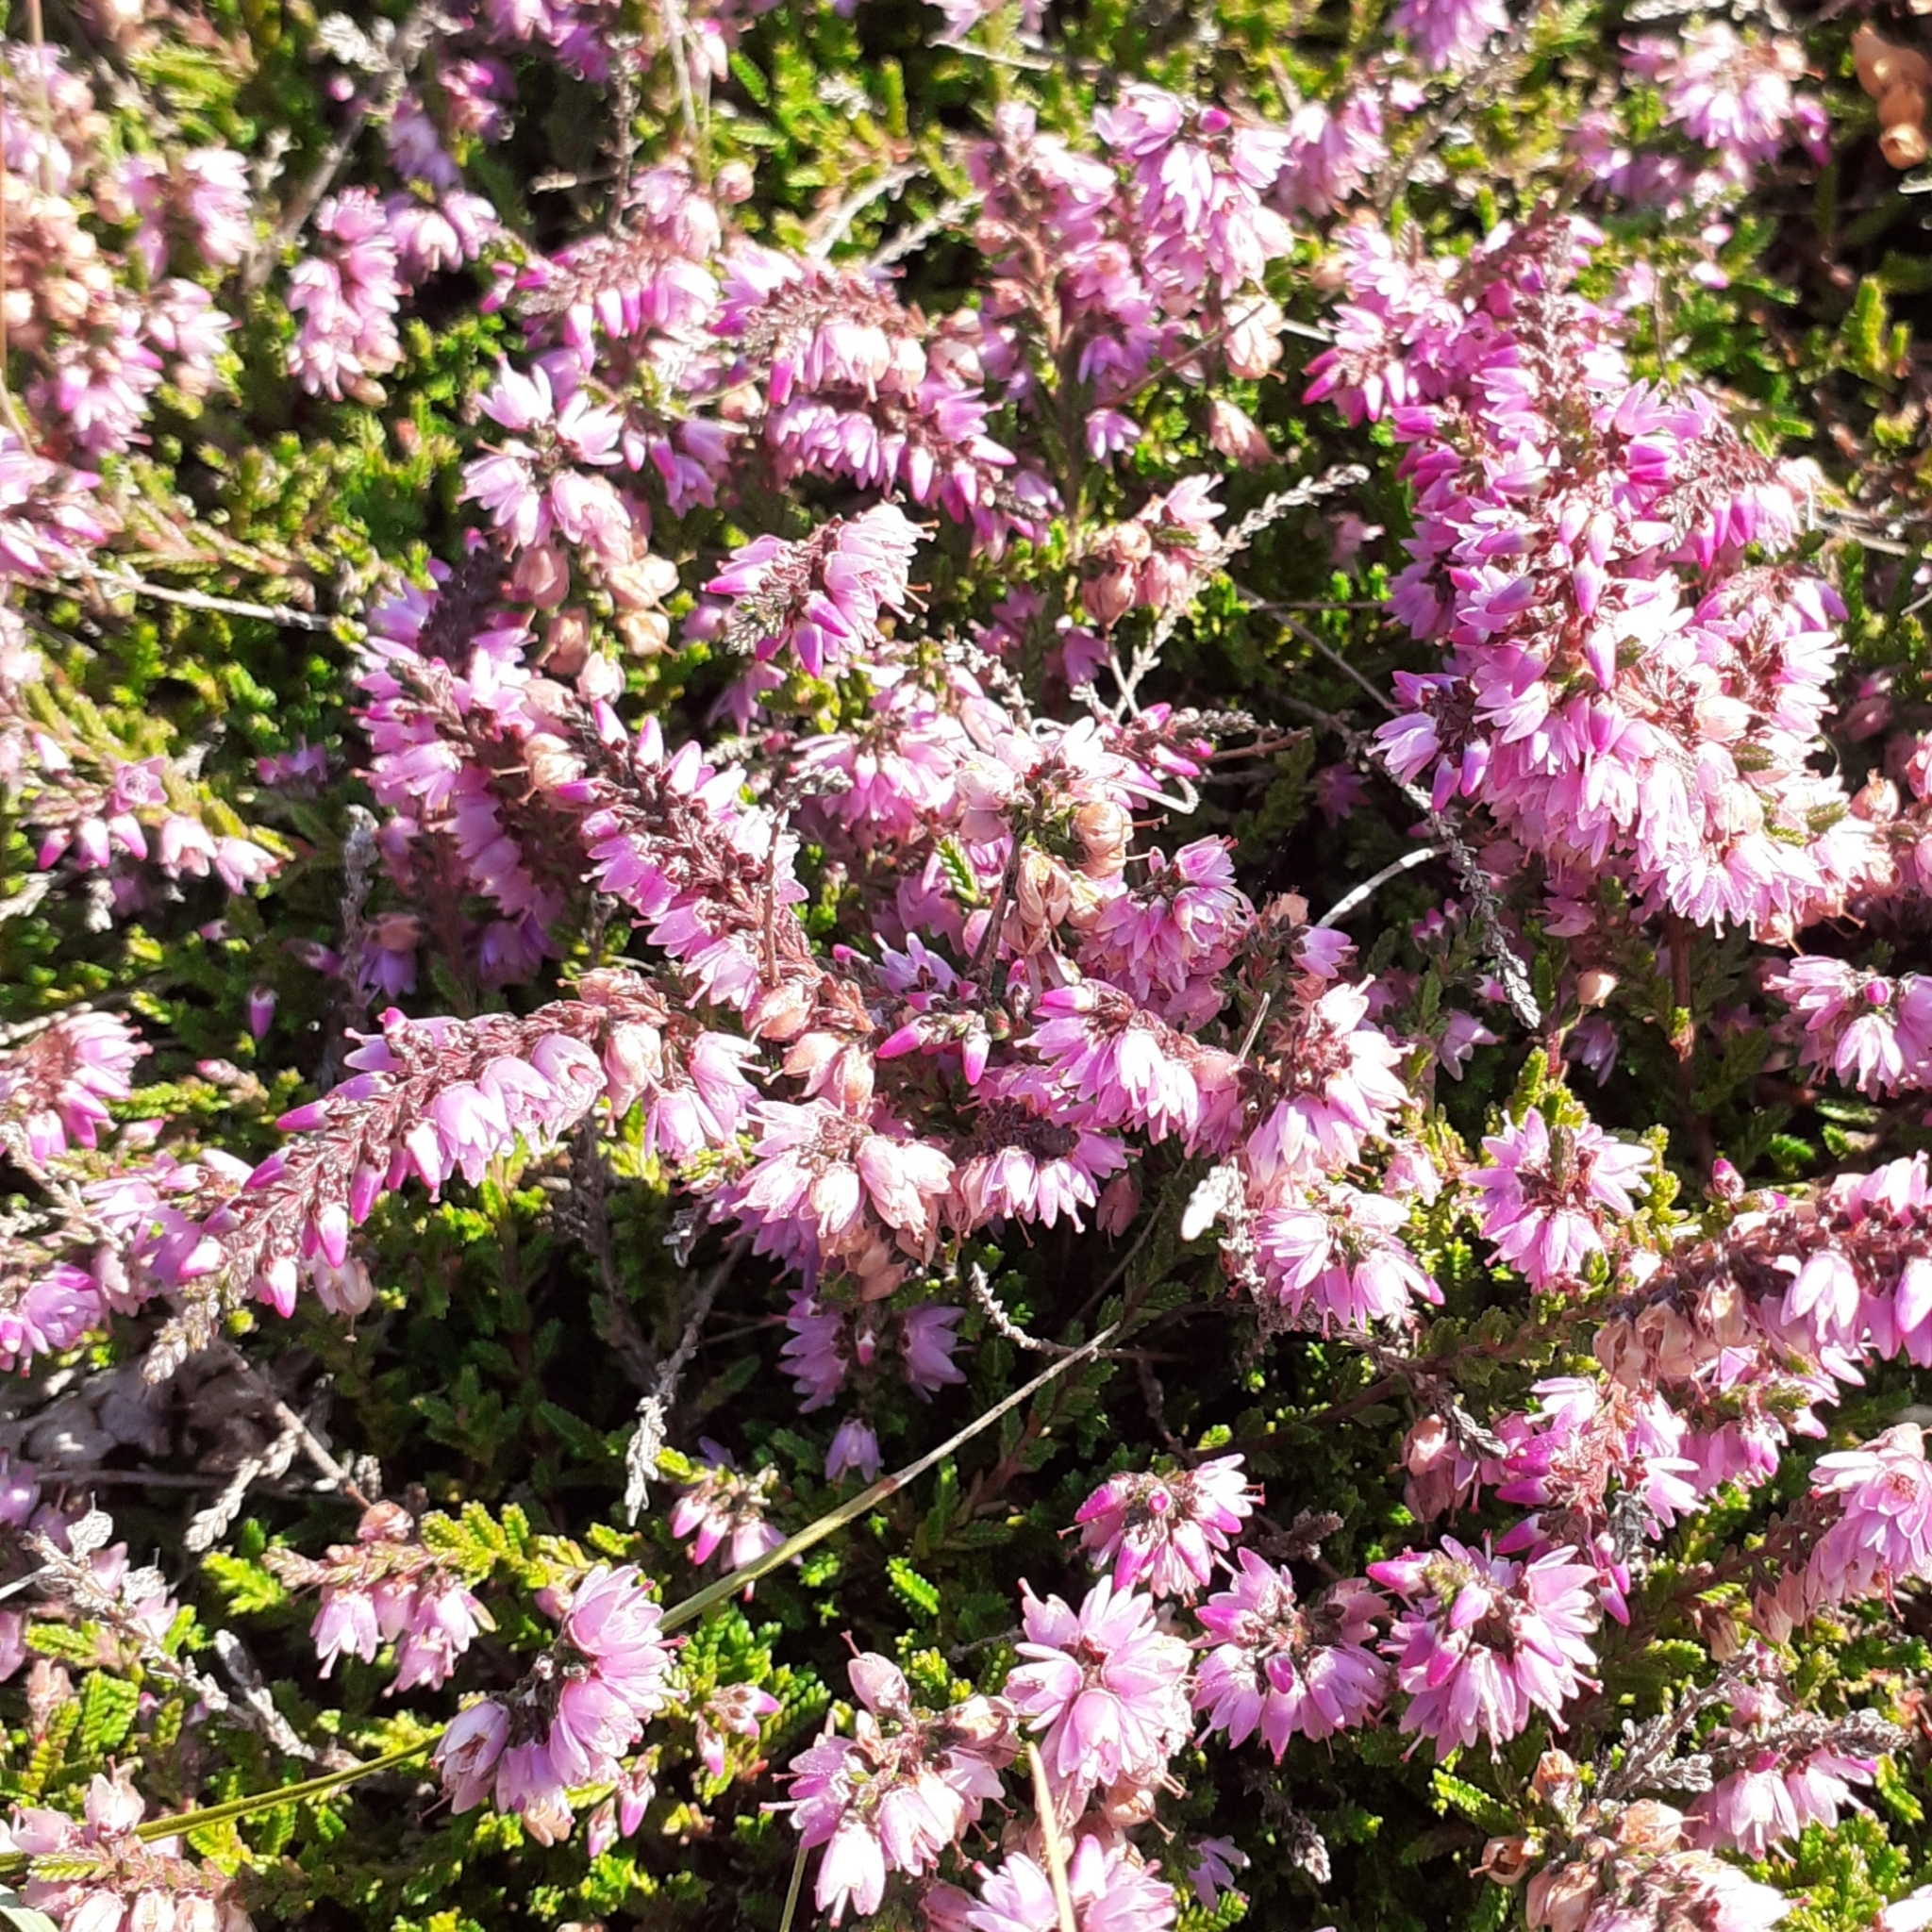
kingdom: Plantae
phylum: Tracheophyta
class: Magnoliopsida
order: Ericales
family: Ericaceae
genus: Calluna
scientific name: Calluna vulgaris
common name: Heather
